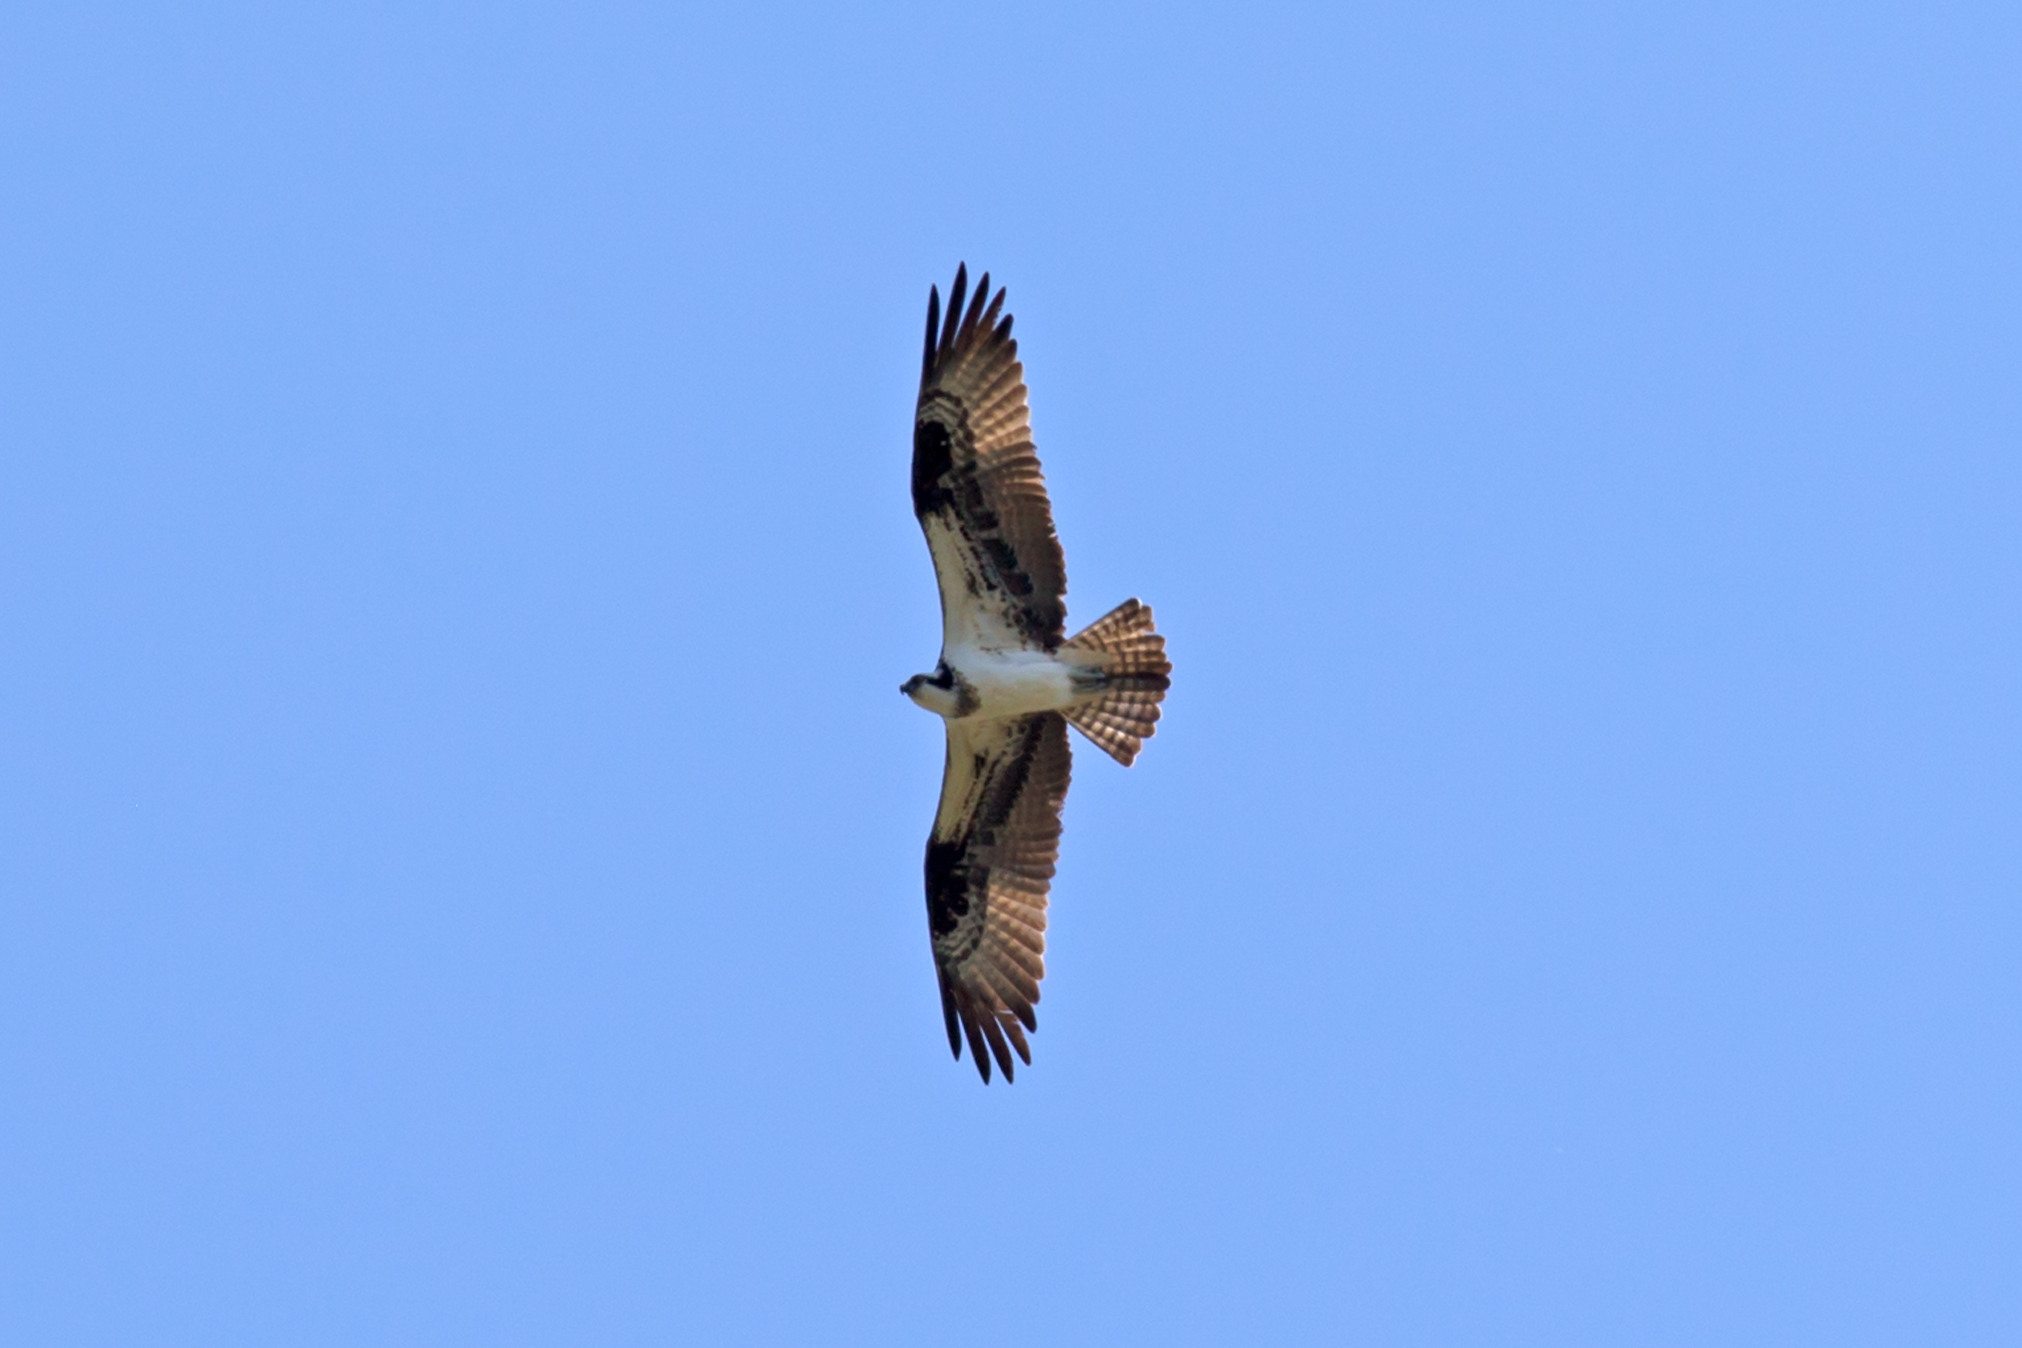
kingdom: Animalia
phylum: Chordata
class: Aves
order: Accipitriformes
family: Pandionidae
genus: Pandion
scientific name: Pandion haliaetus
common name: Osprey
